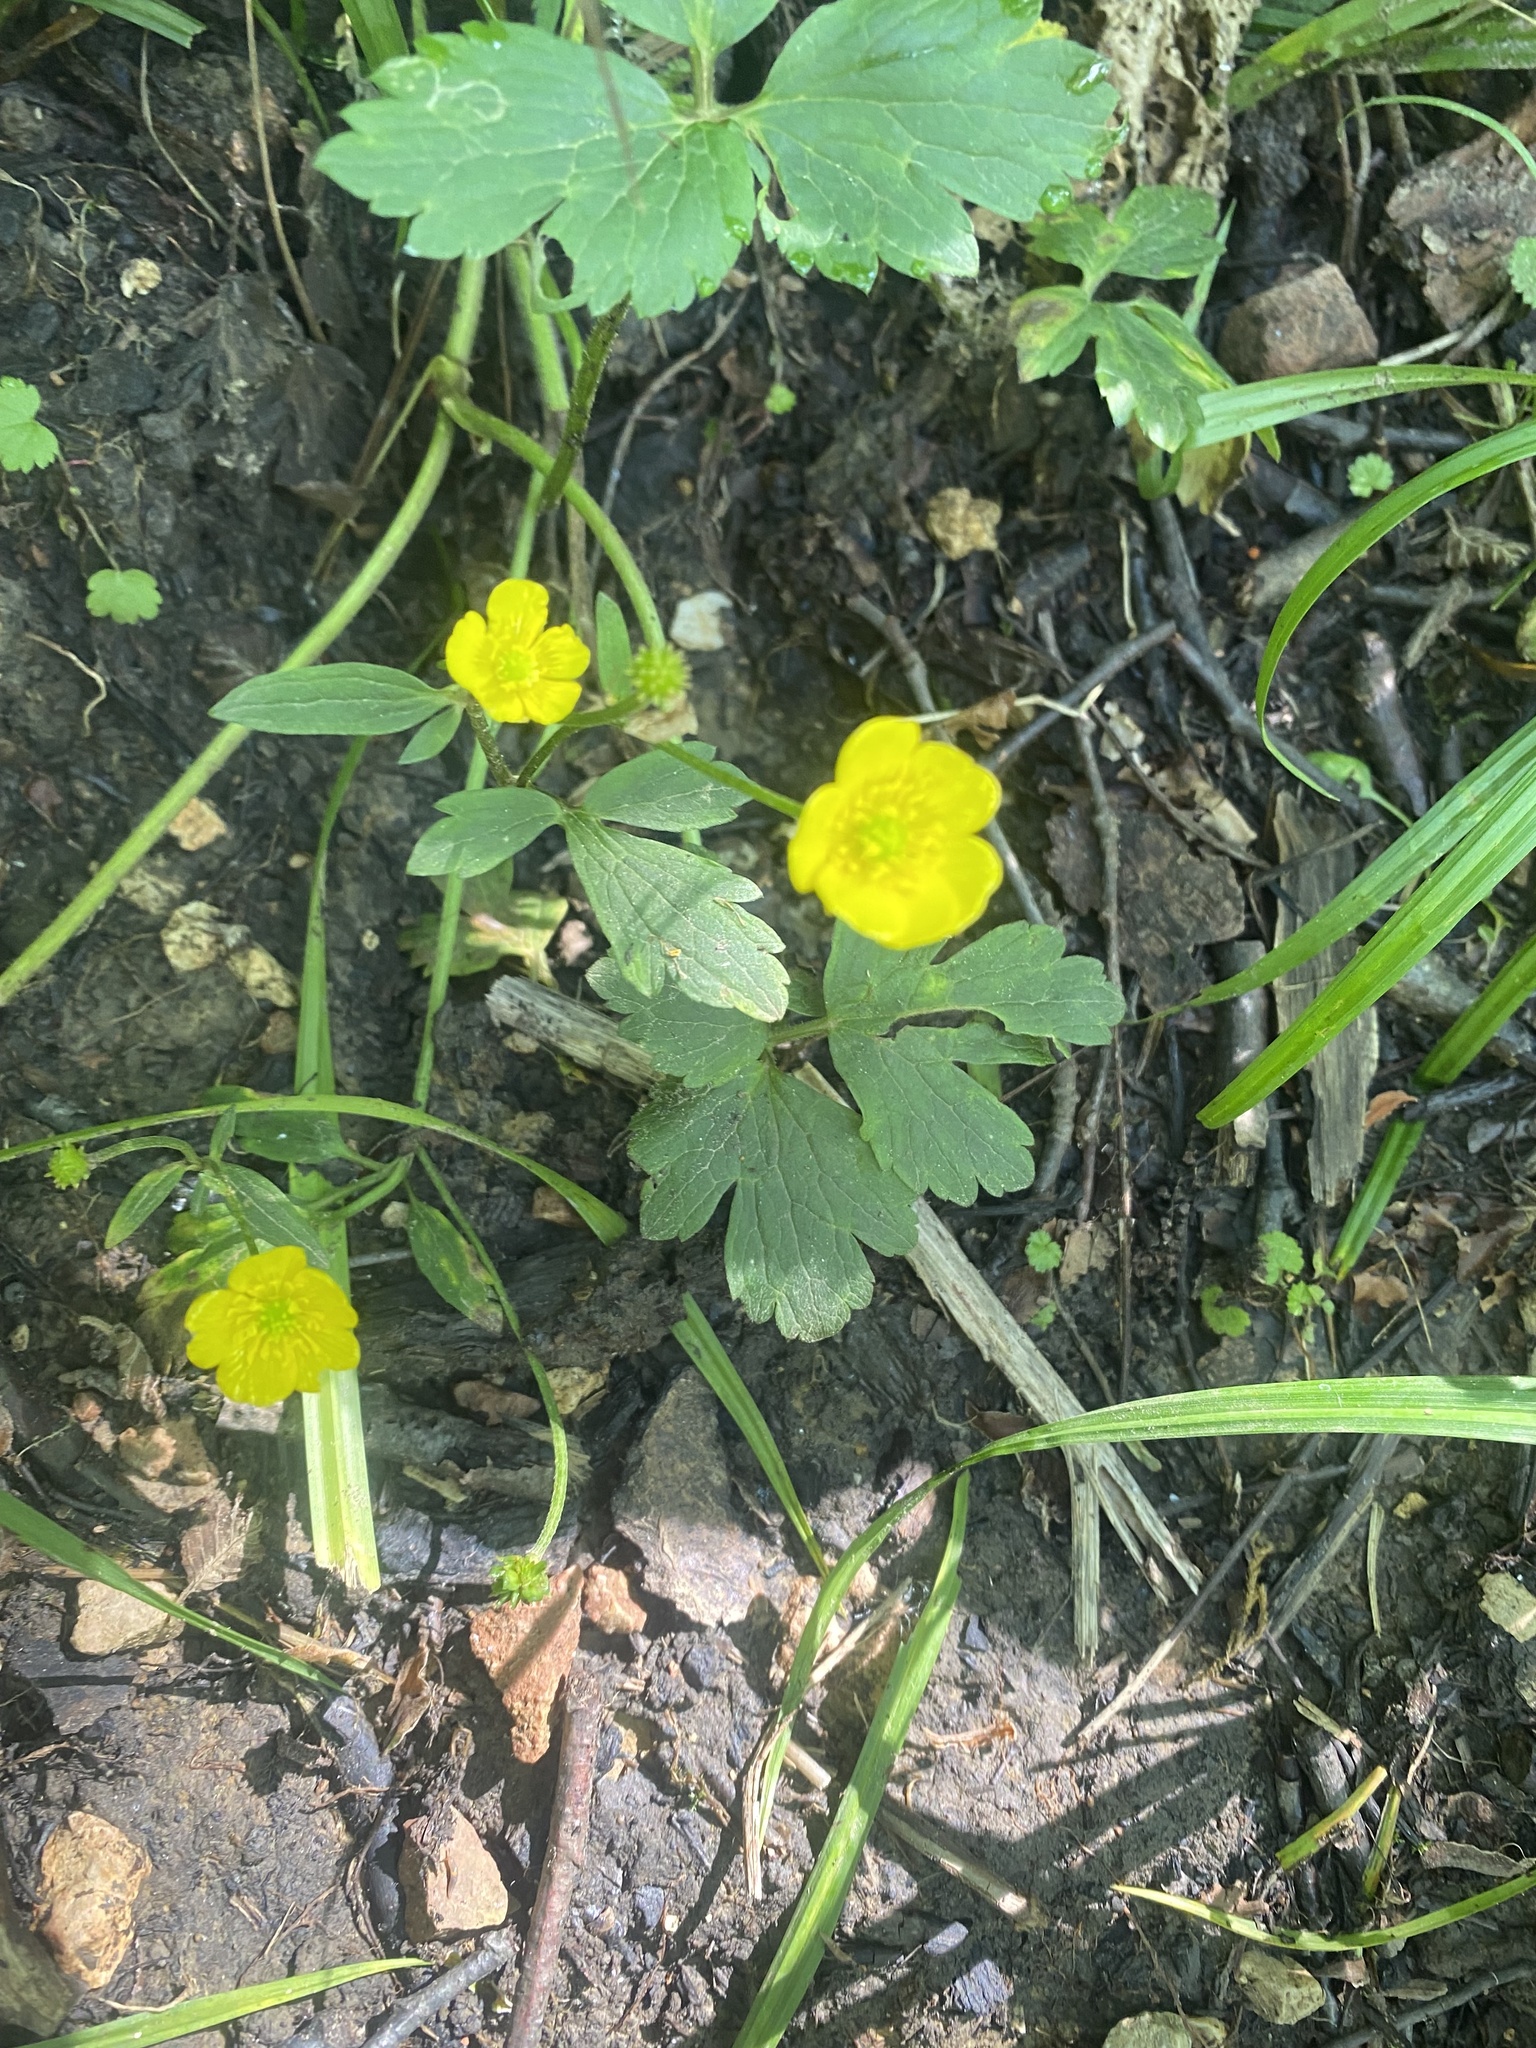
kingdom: Plantae
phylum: Tracheophyta
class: Magnoliopsida
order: Ranunculales
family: Ranunculaceae
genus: Ranunculus
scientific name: Ranunculus repens
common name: Creeping buttercup
